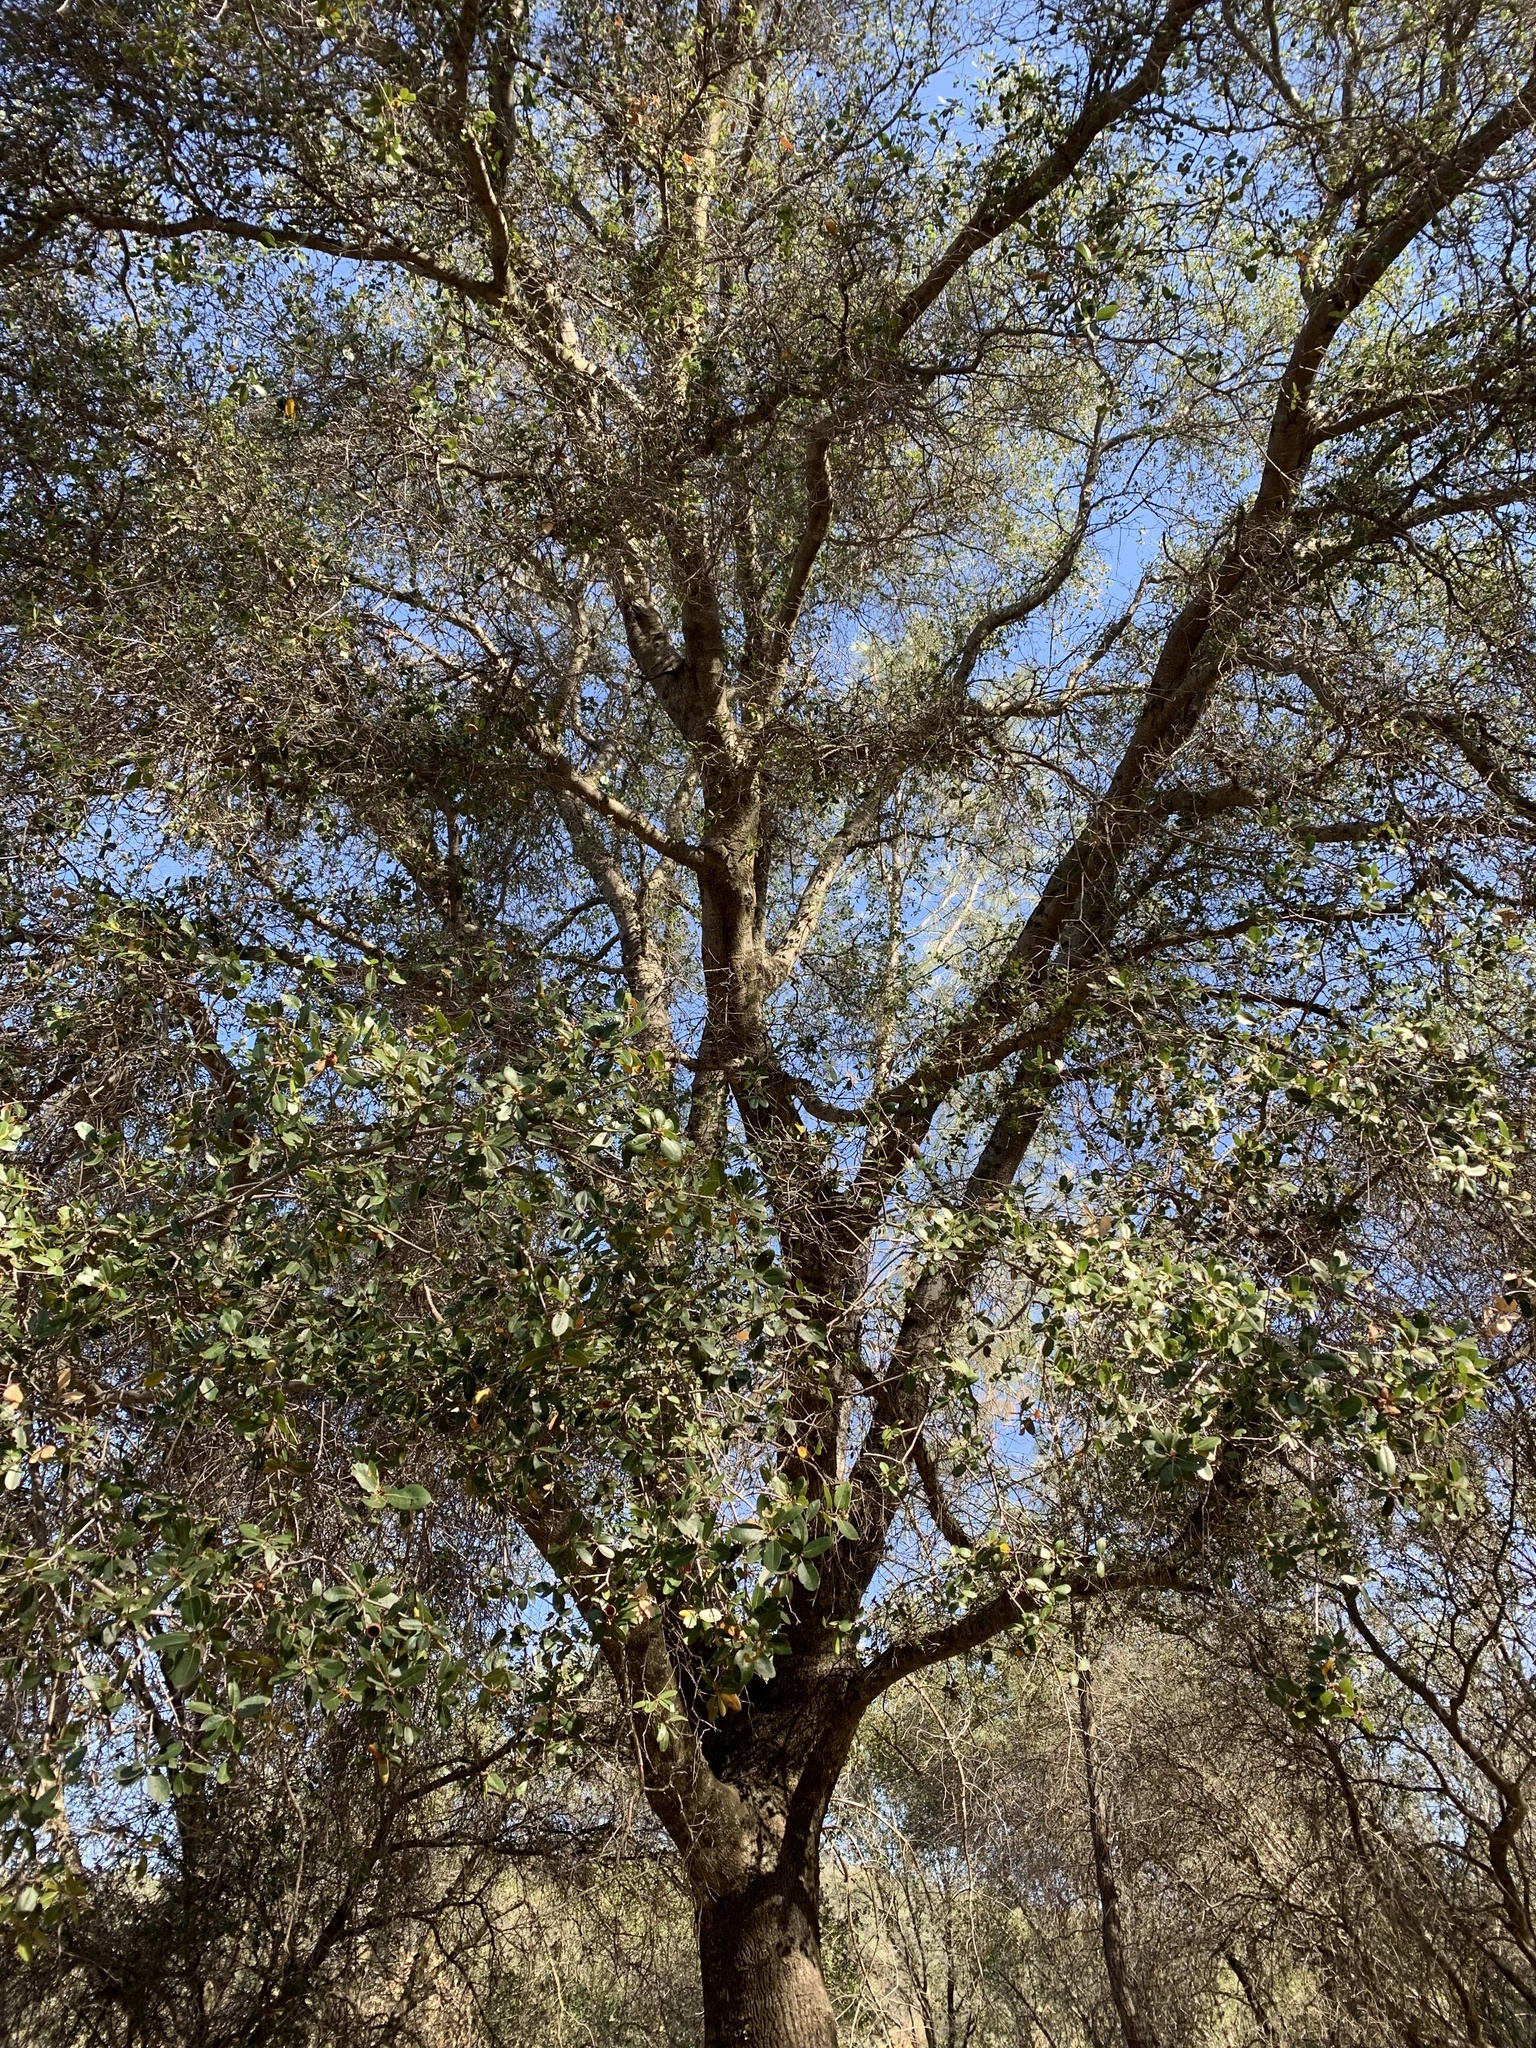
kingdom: Plantae
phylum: Tracheophyta
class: Magnoliopsida
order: Fagales
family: Fagaceae
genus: Quercus
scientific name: Quercus wislizeni
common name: Interior live oak
